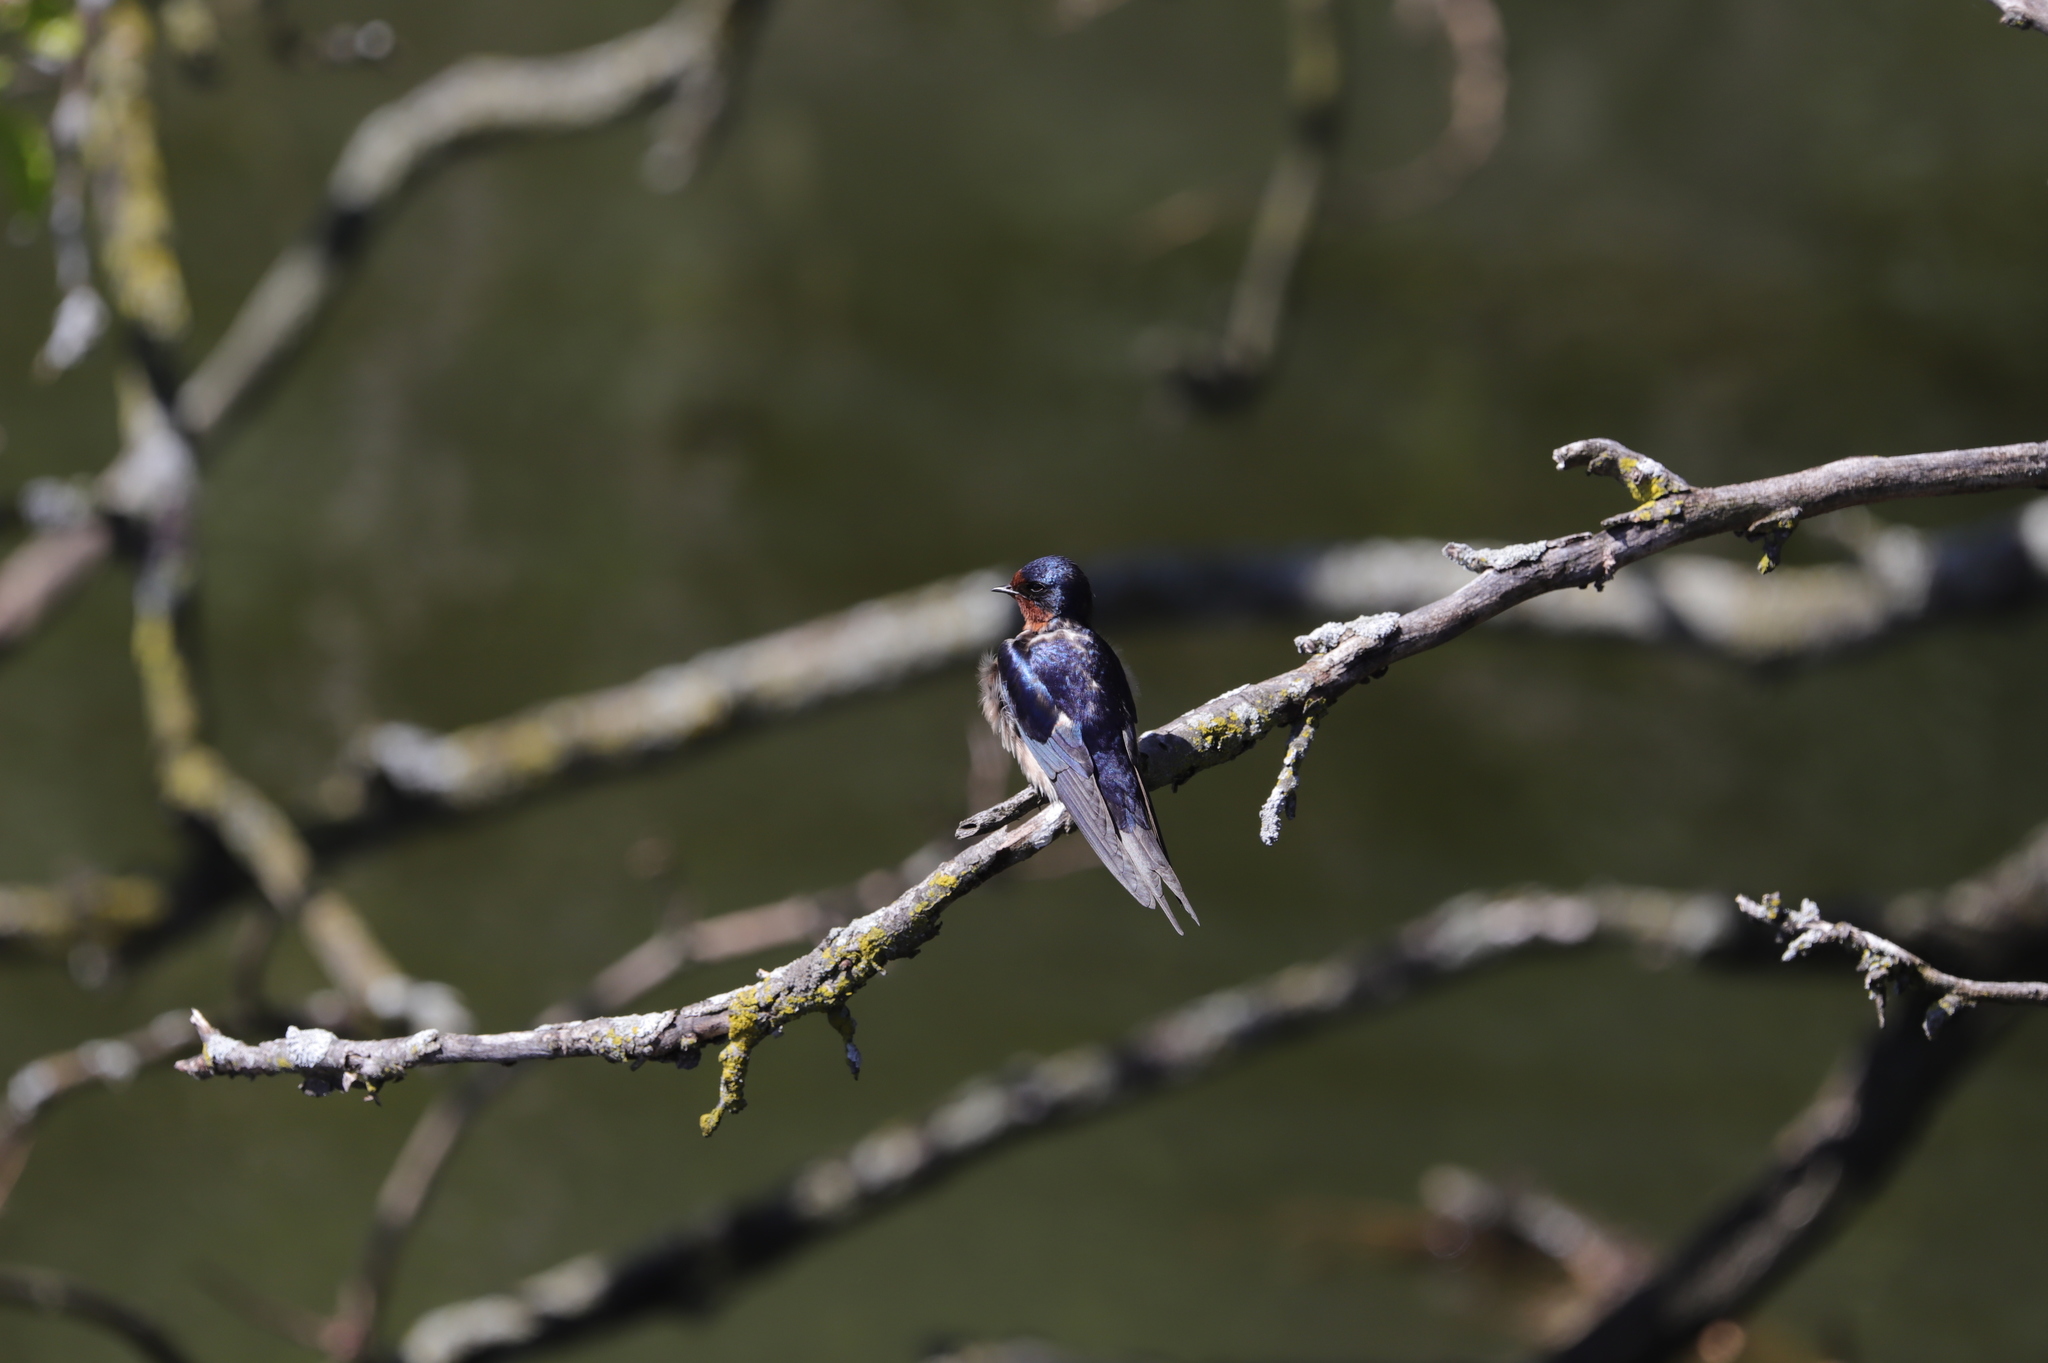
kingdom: Animalia
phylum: Chordata
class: Aves
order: Passeriformes
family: Hirundinidae
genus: Hirundo
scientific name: Hirundo rustica
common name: Barn swallow
